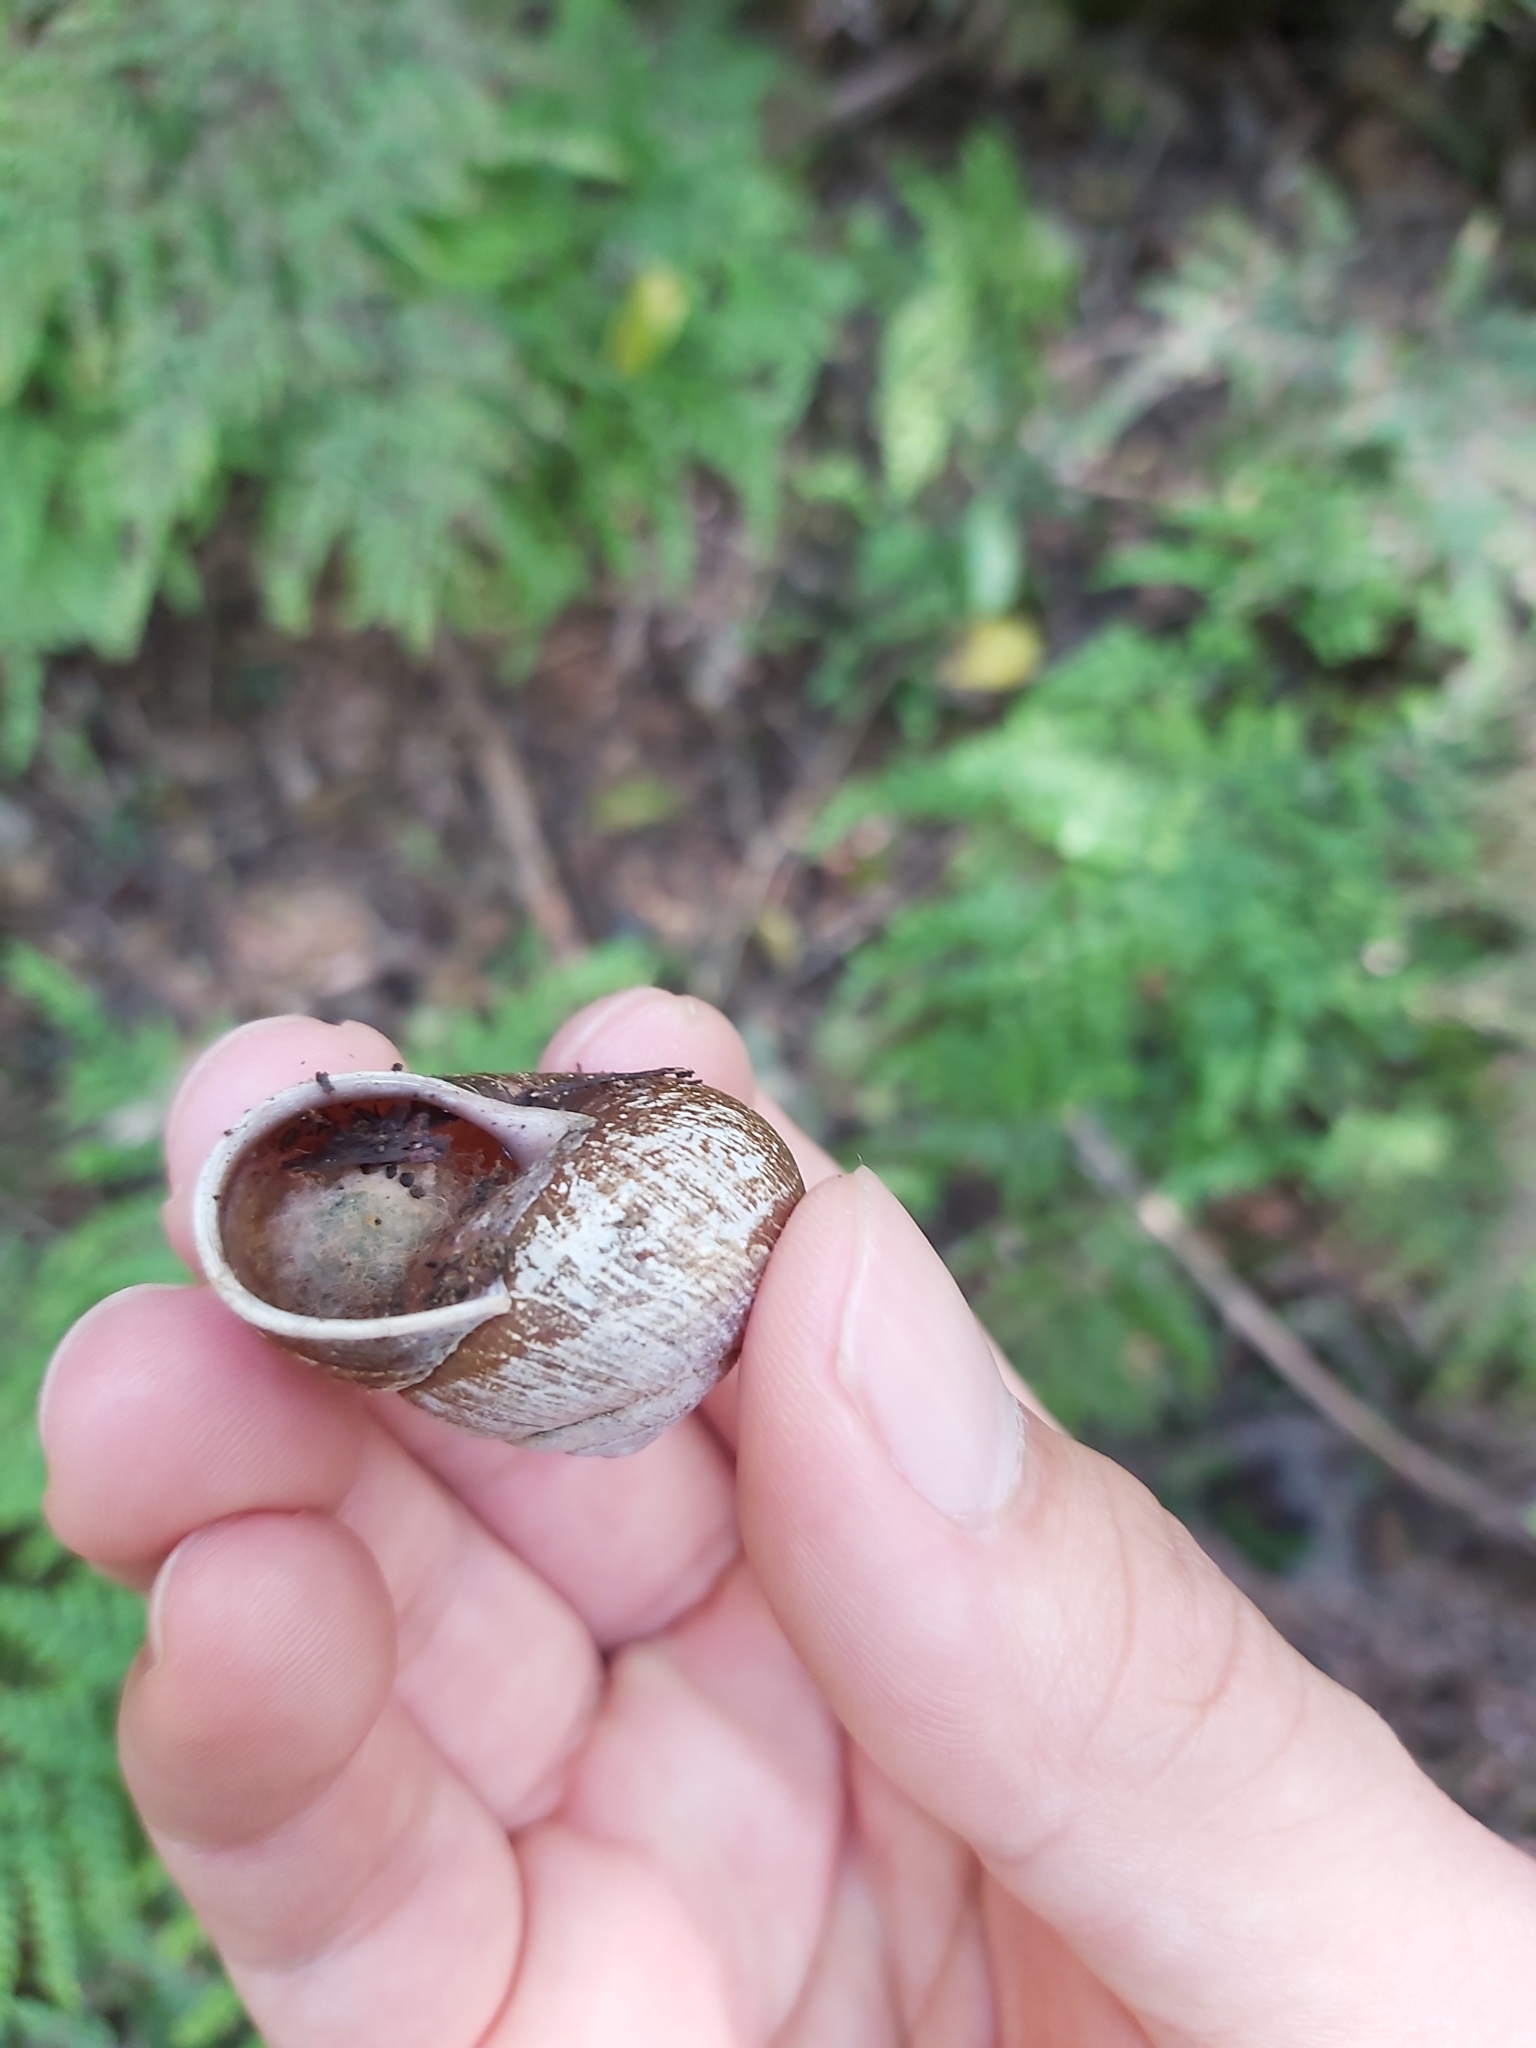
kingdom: Animalia
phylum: Mollusca
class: Gastropoda
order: Stylommatophora
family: Camaenidae
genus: Sauroconcha
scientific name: Sauroconcha gulosa
